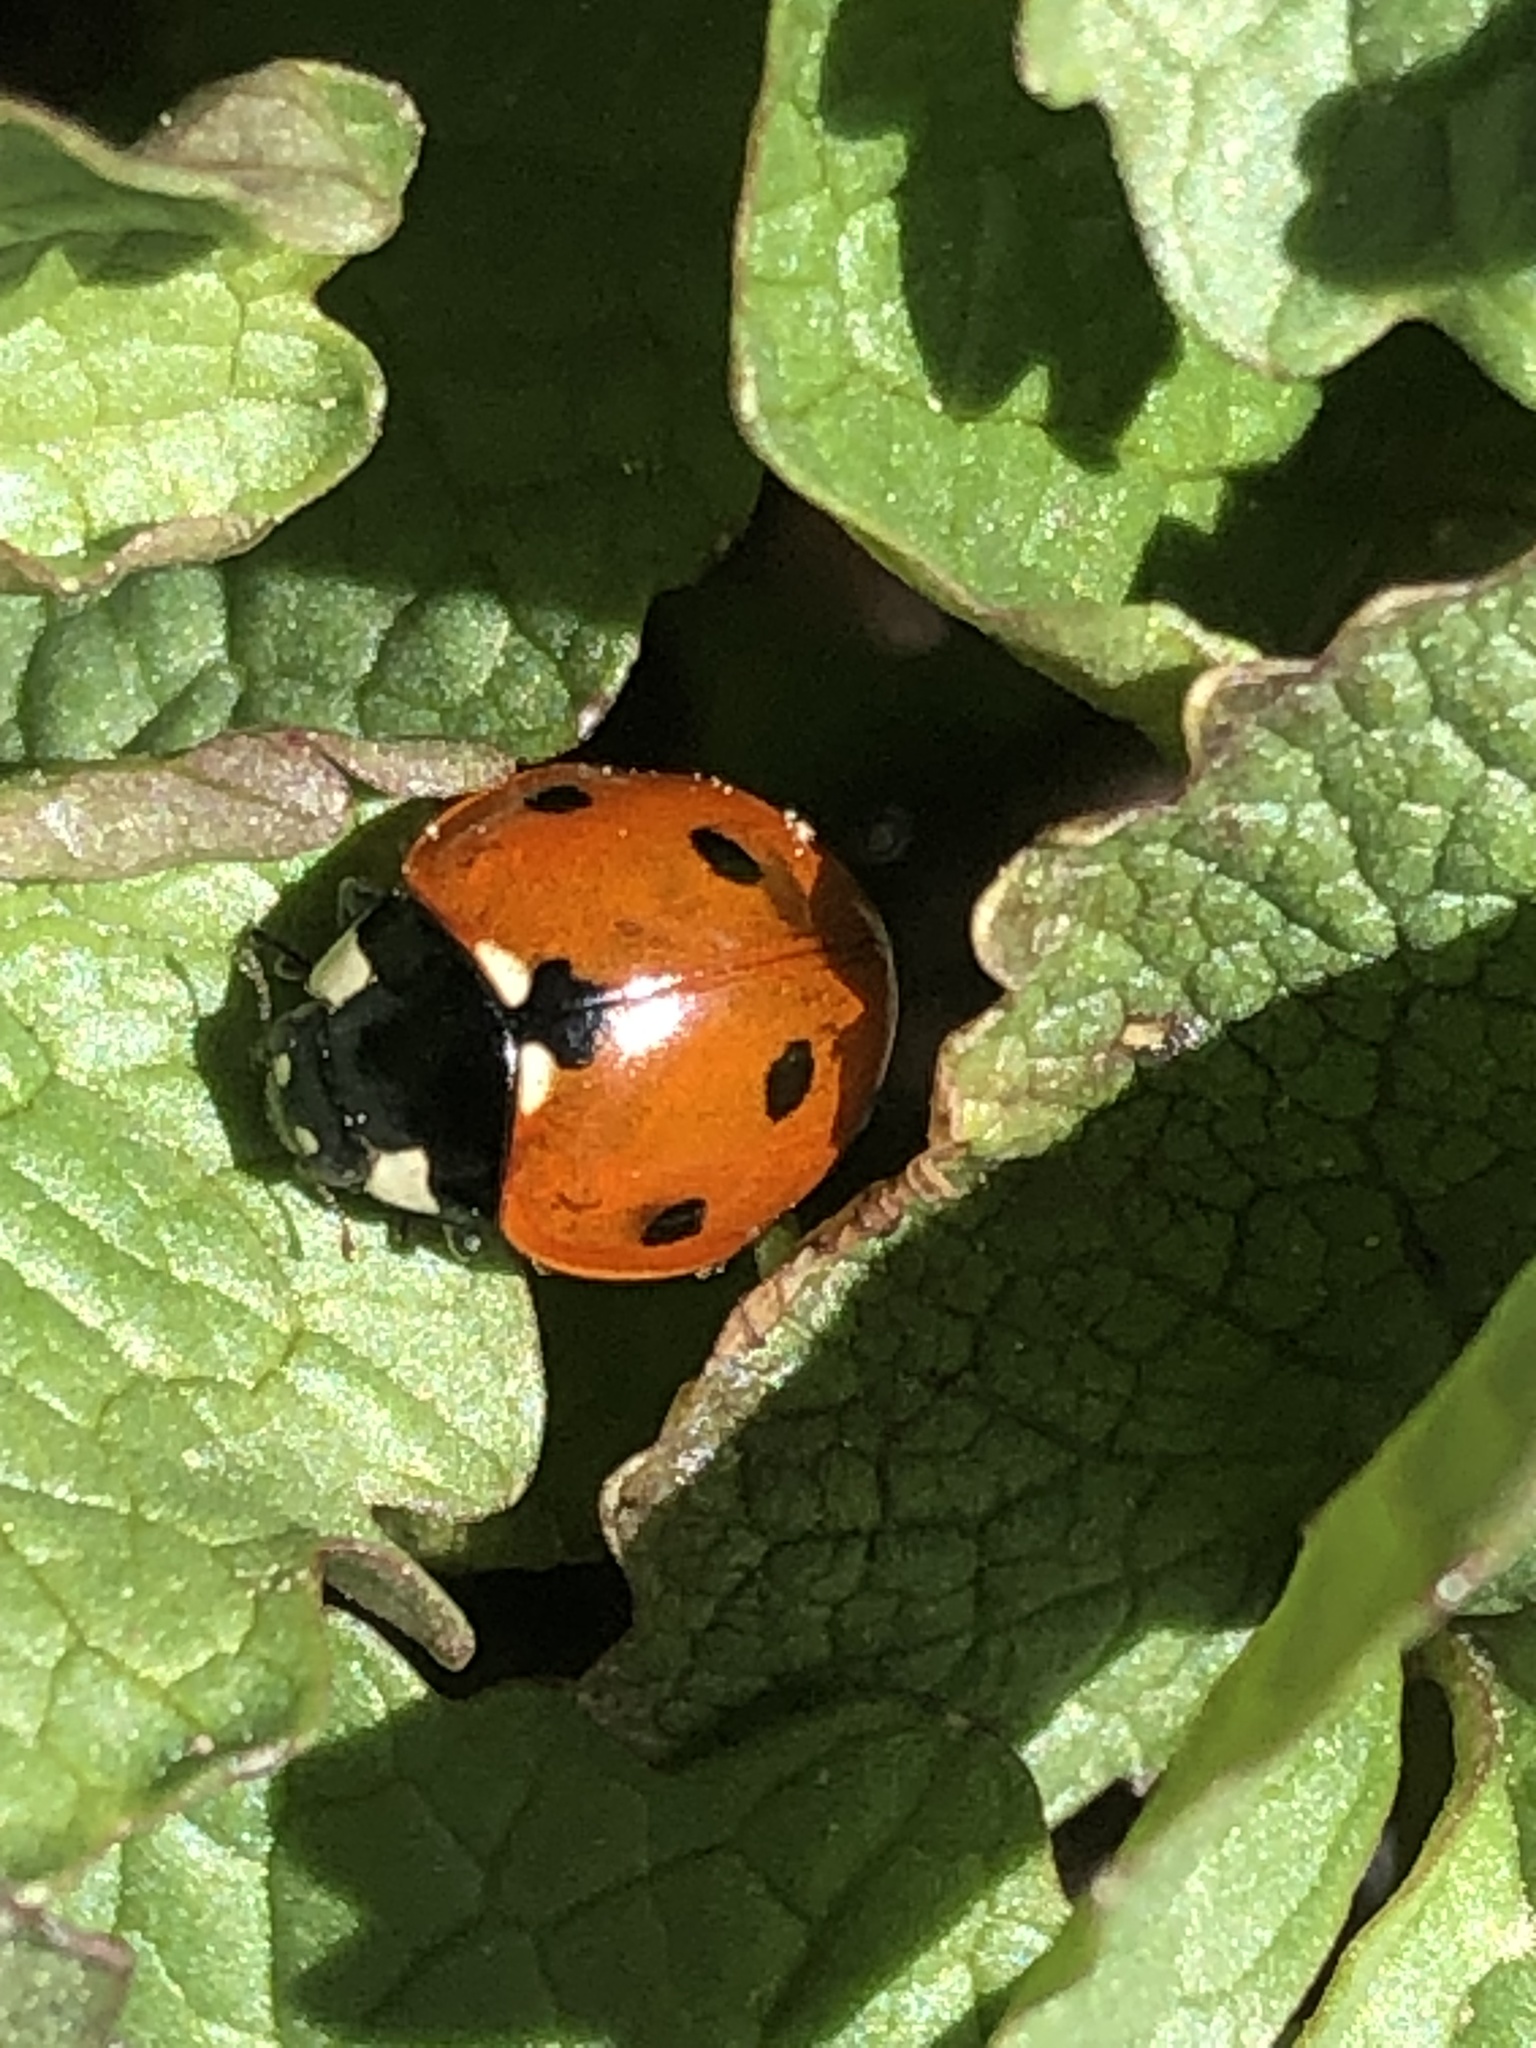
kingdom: Animalia
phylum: Arthropoda
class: Insecta
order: Coleoptera
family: Coccinellidae
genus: Coccinella
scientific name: Coccinella septempunctata
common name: Sevenspotted lady beetle
